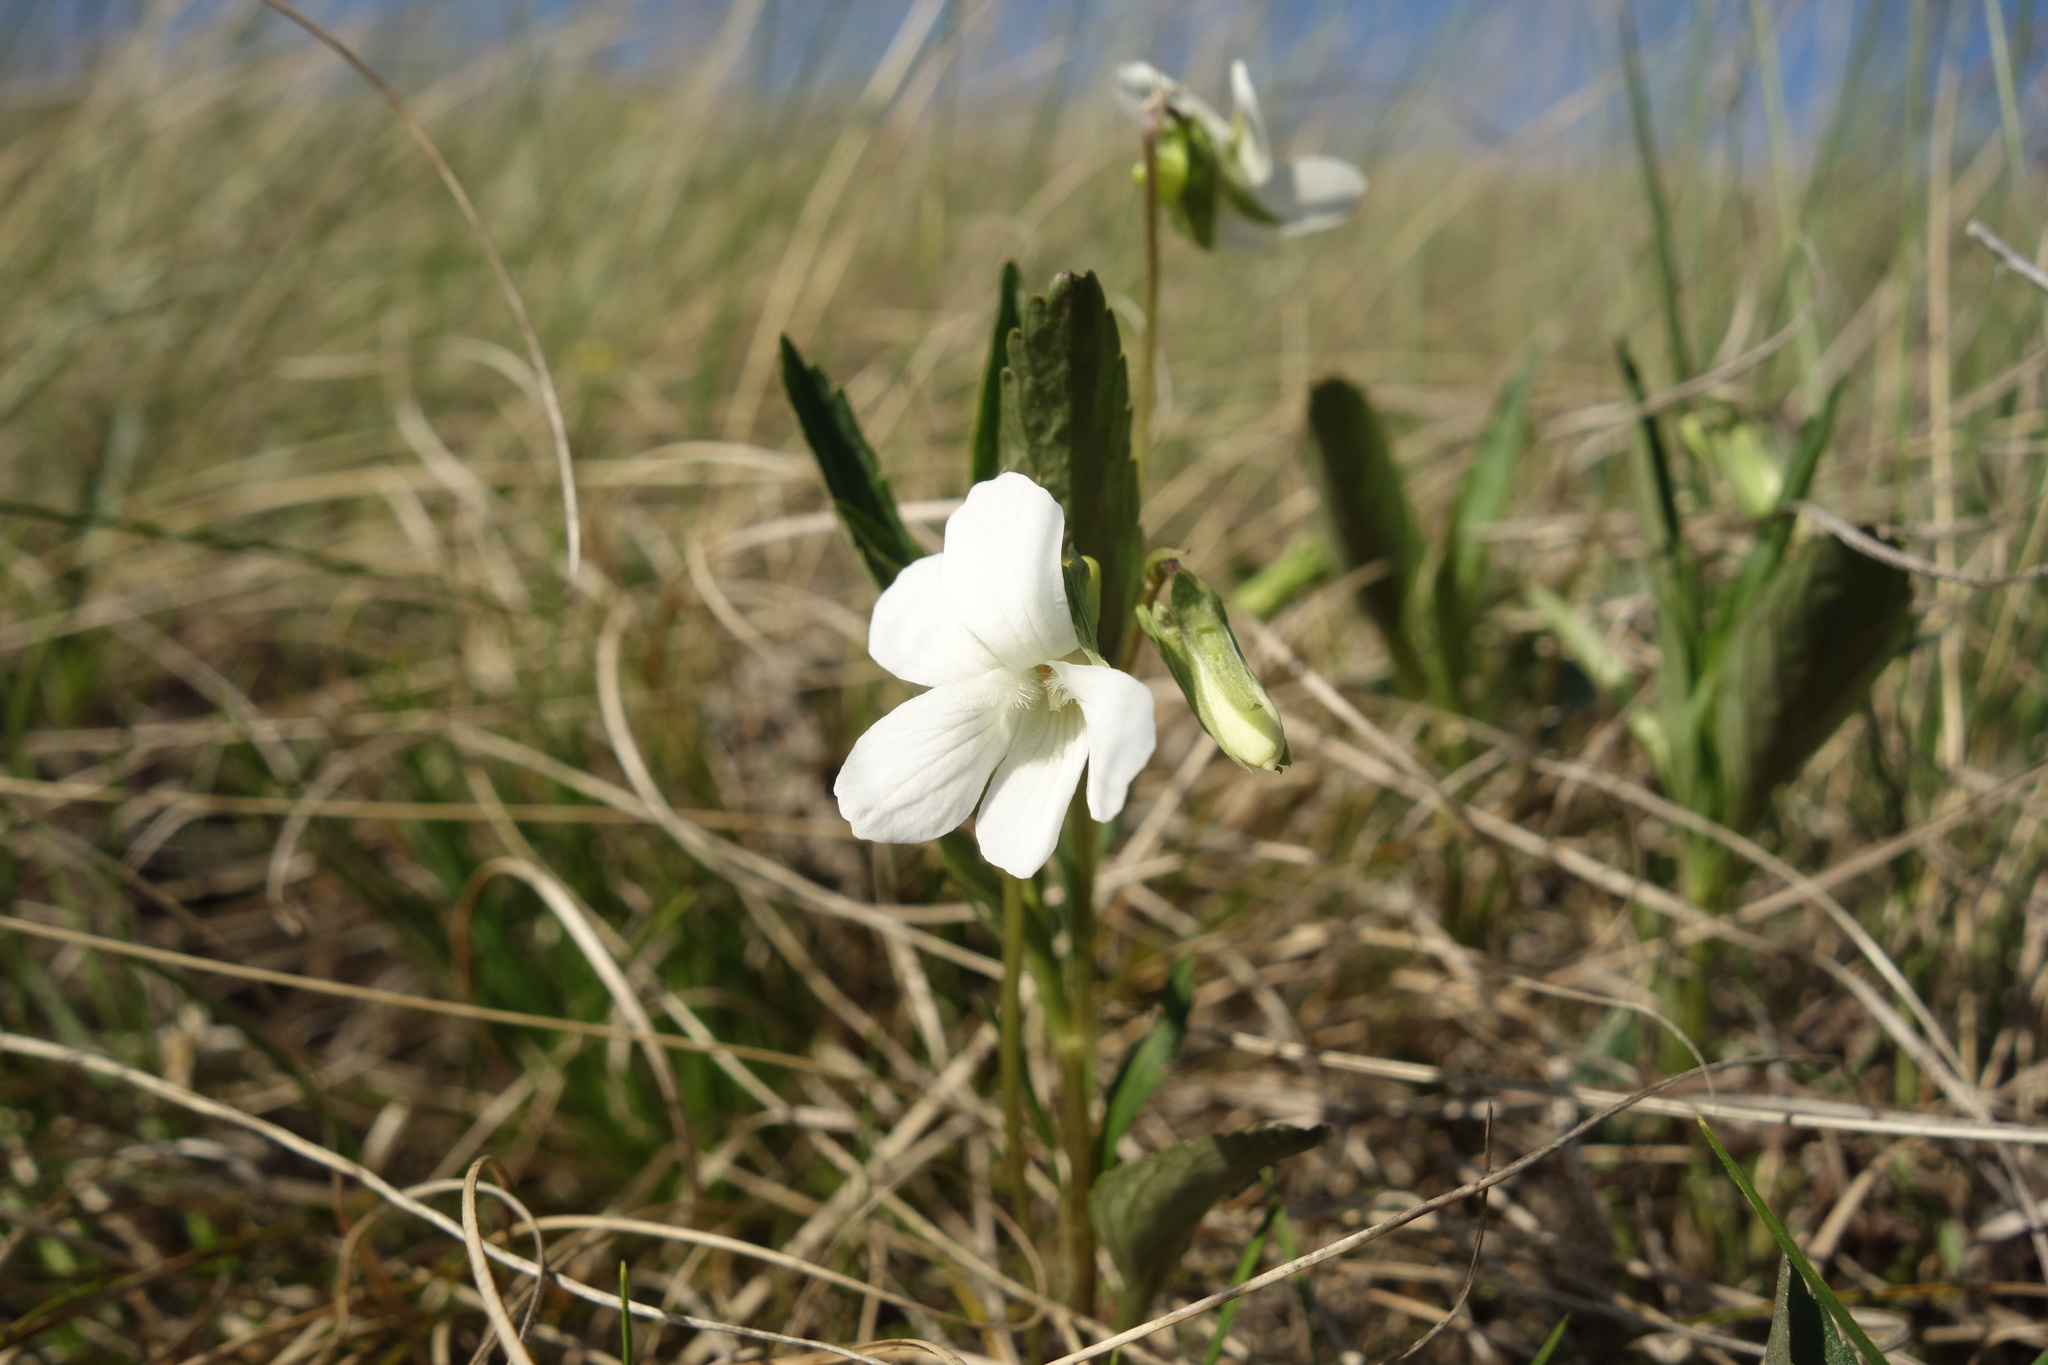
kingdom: Plantae
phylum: Tracheophyta
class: Magnoliopsida
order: Malpighiales
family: Violaceae
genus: Viola
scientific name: Viola pumila
